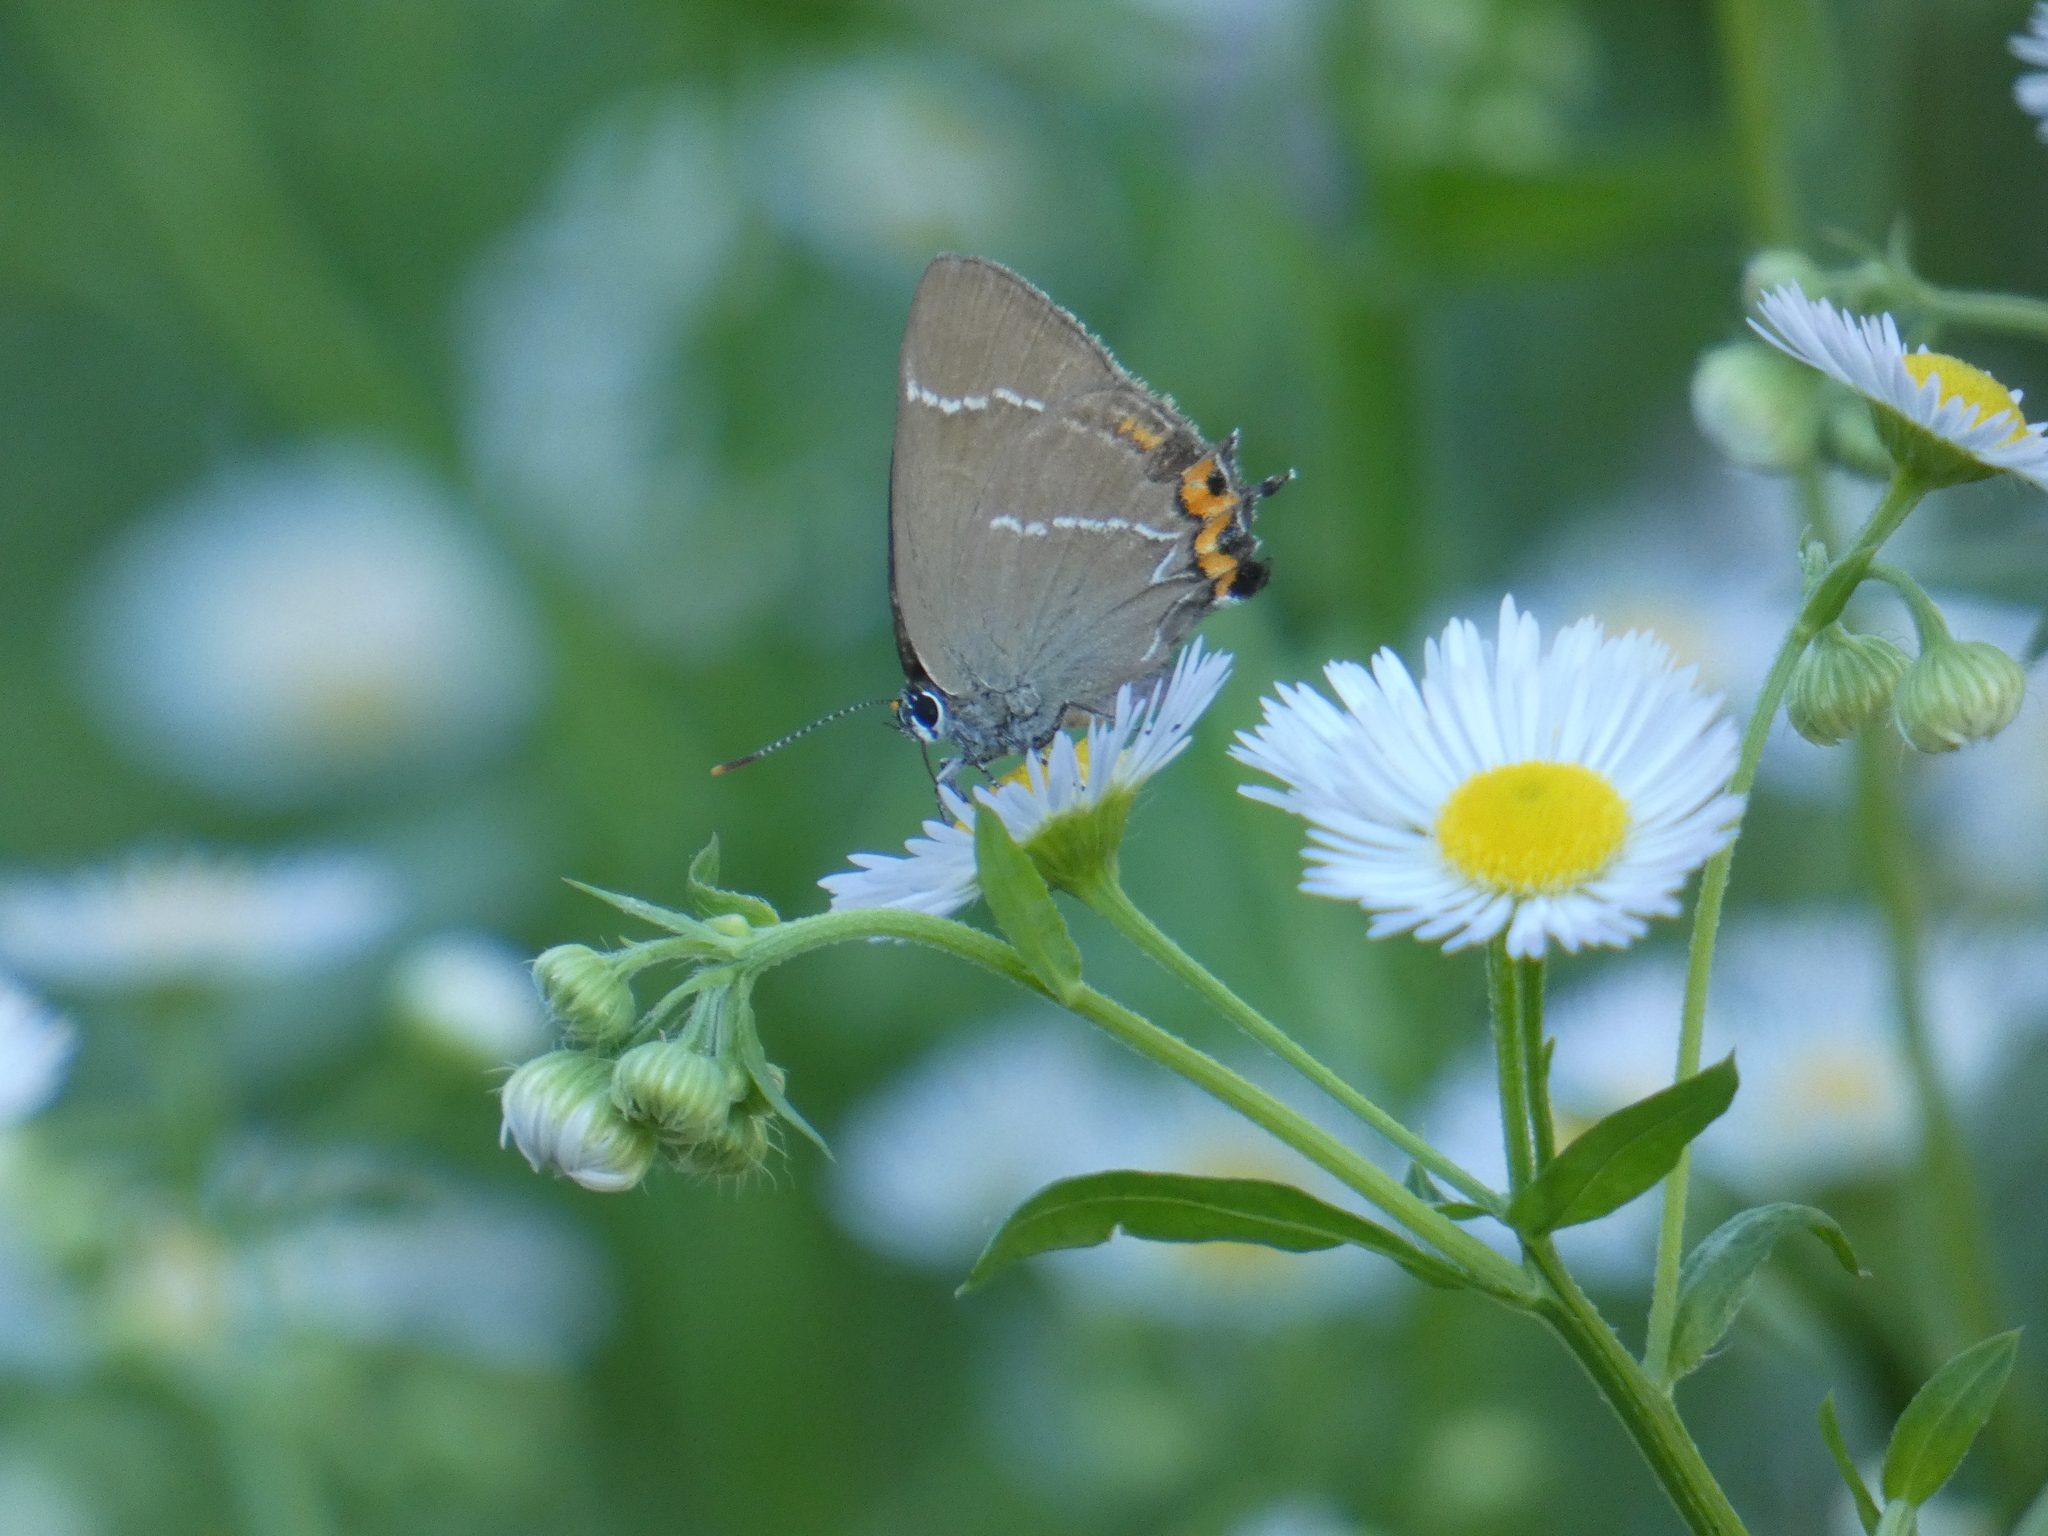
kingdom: Animalia
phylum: Arthropoda
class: Insecta
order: Lepidoptera
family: Lycaenidae
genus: Satyrium
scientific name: Satyrium w-album
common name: White-letter hairstreak
